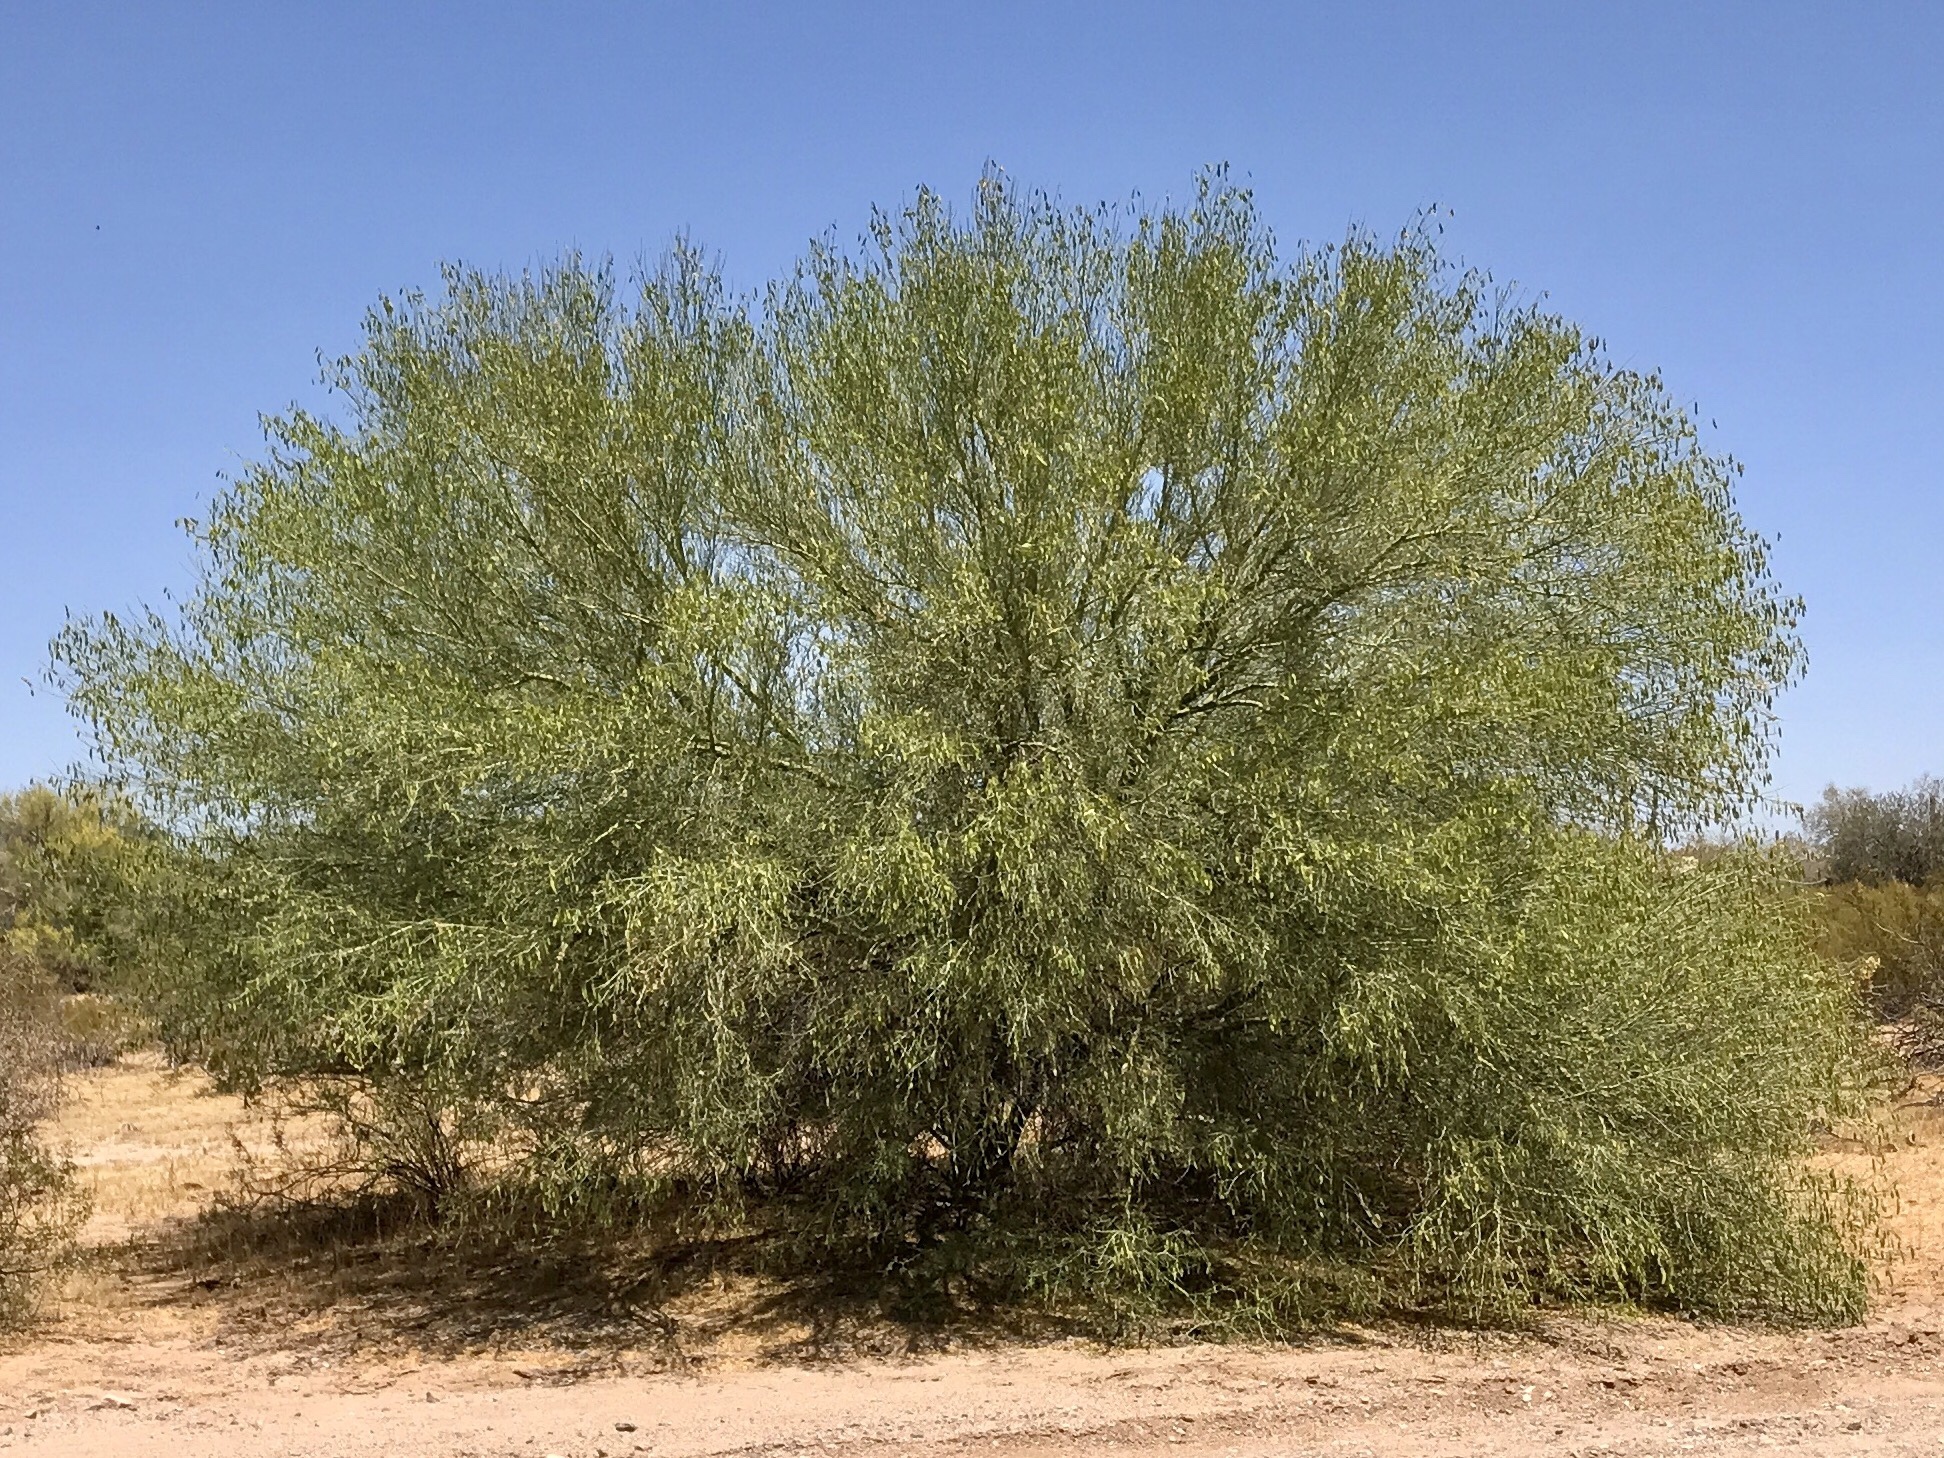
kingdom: Plantae
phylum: Tracheophyta
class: Magnoliopsida
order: Fabales
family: Fabaceae
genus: Parkinsonia
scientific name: Parkinsonia microphylla
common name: Yellow paloverde
